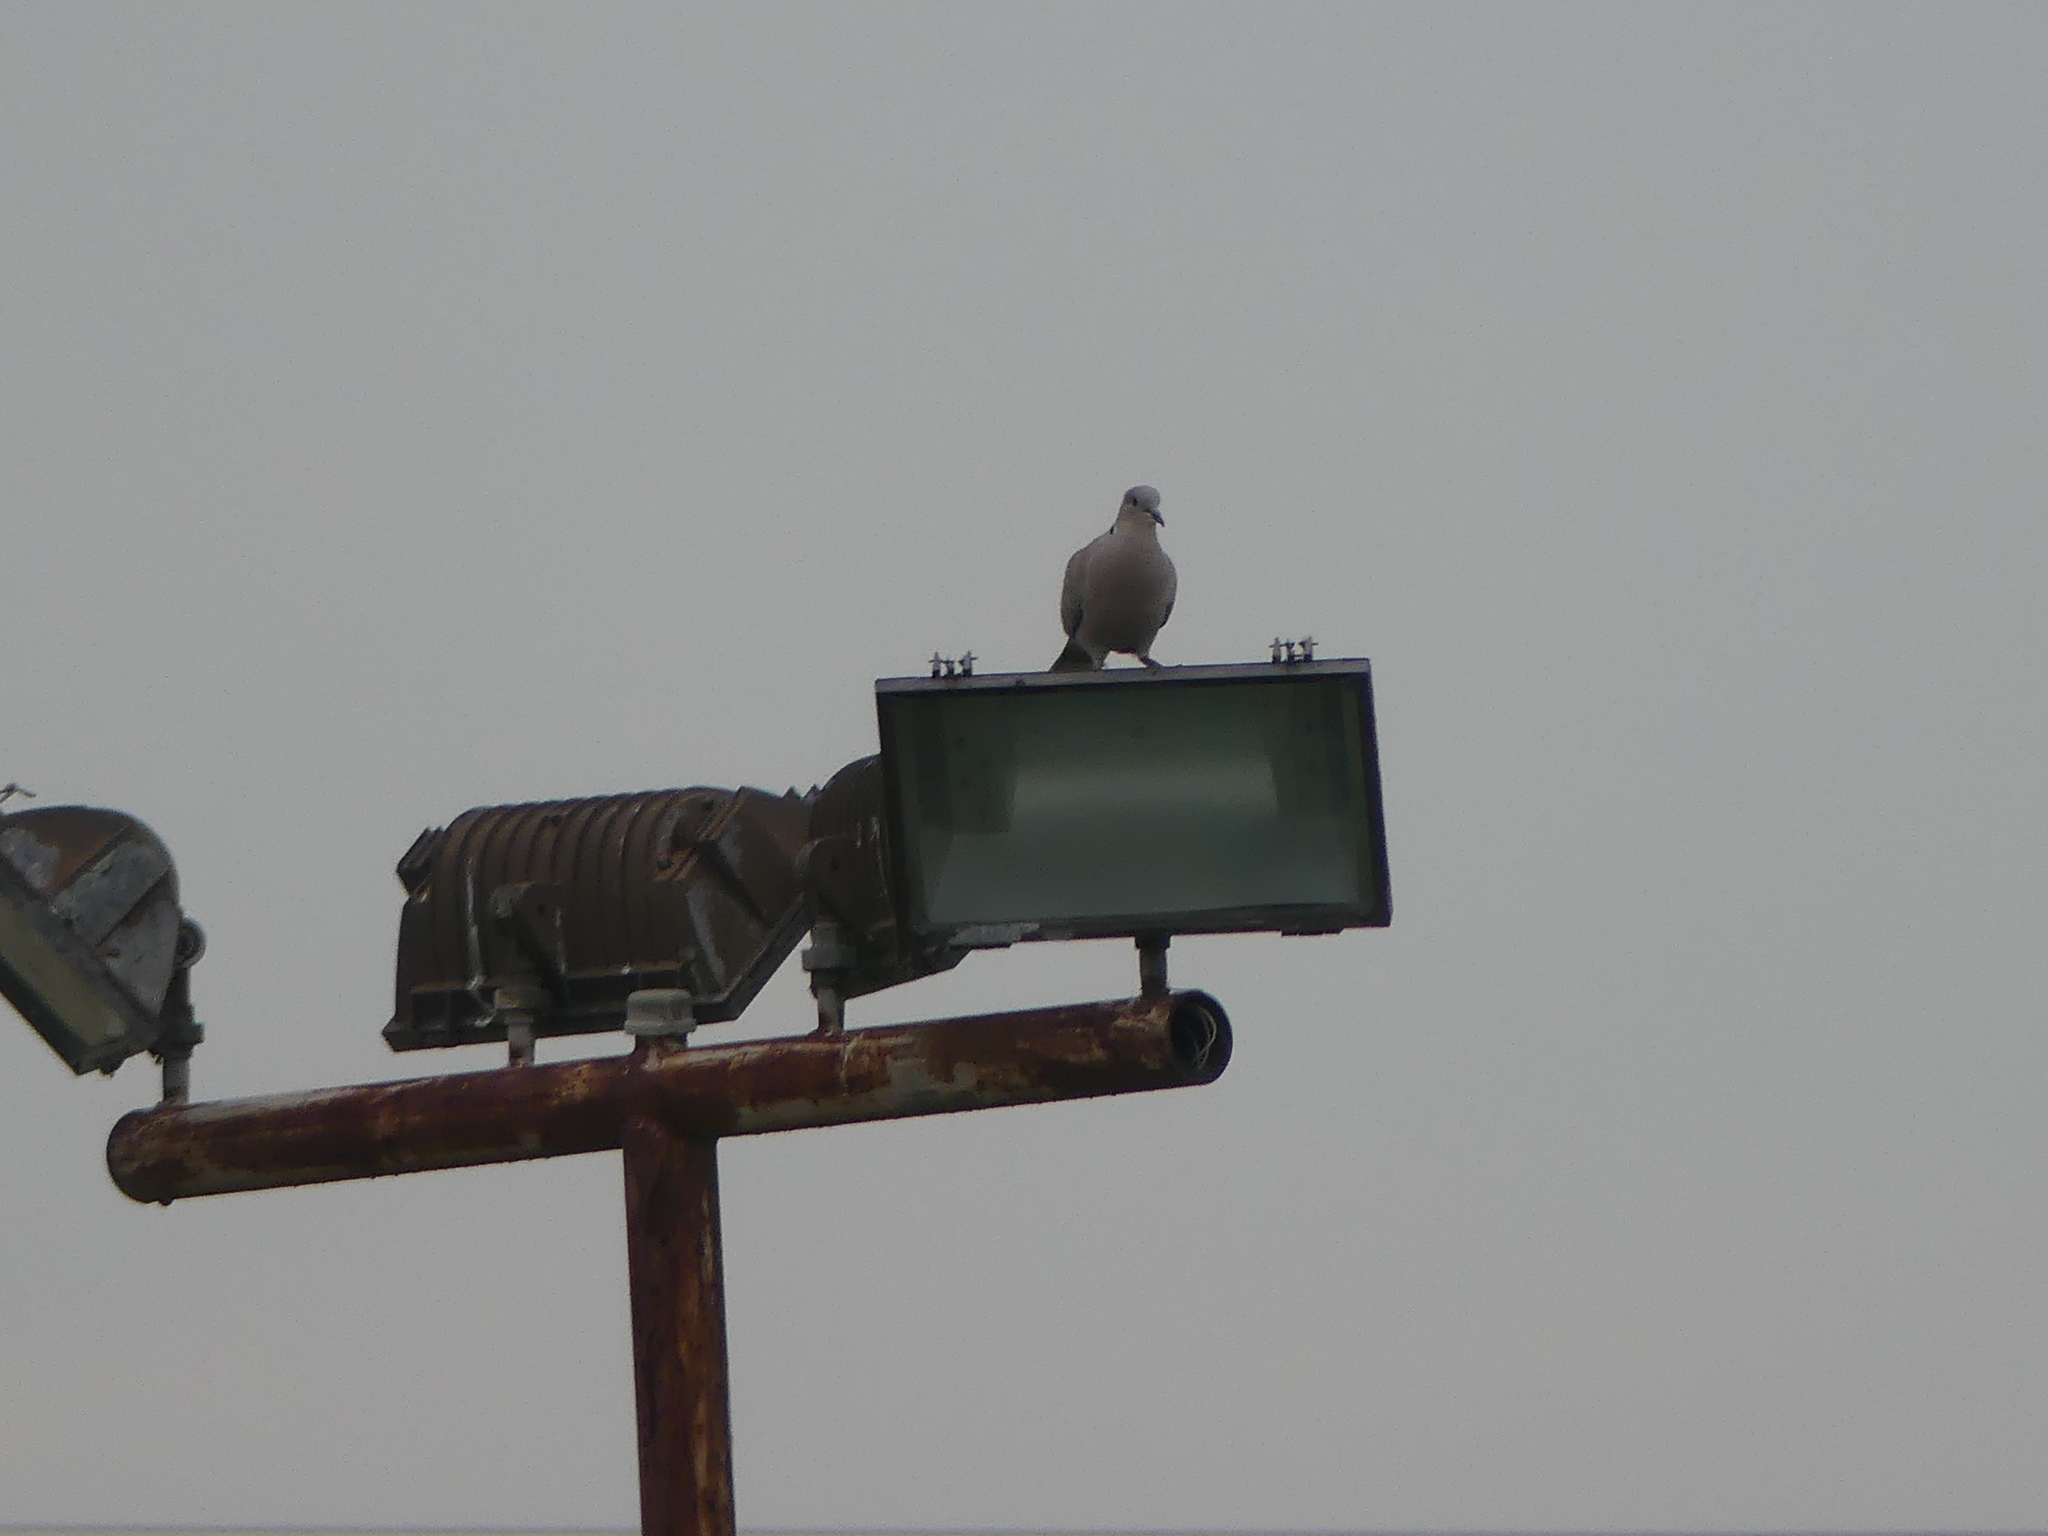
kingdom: Animalia
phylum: Chordata
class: Aves
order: Columbiformes
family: Columbidae
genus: Streptopelia
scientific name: Streptopelia decaocto
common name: Eurasian collared dove
